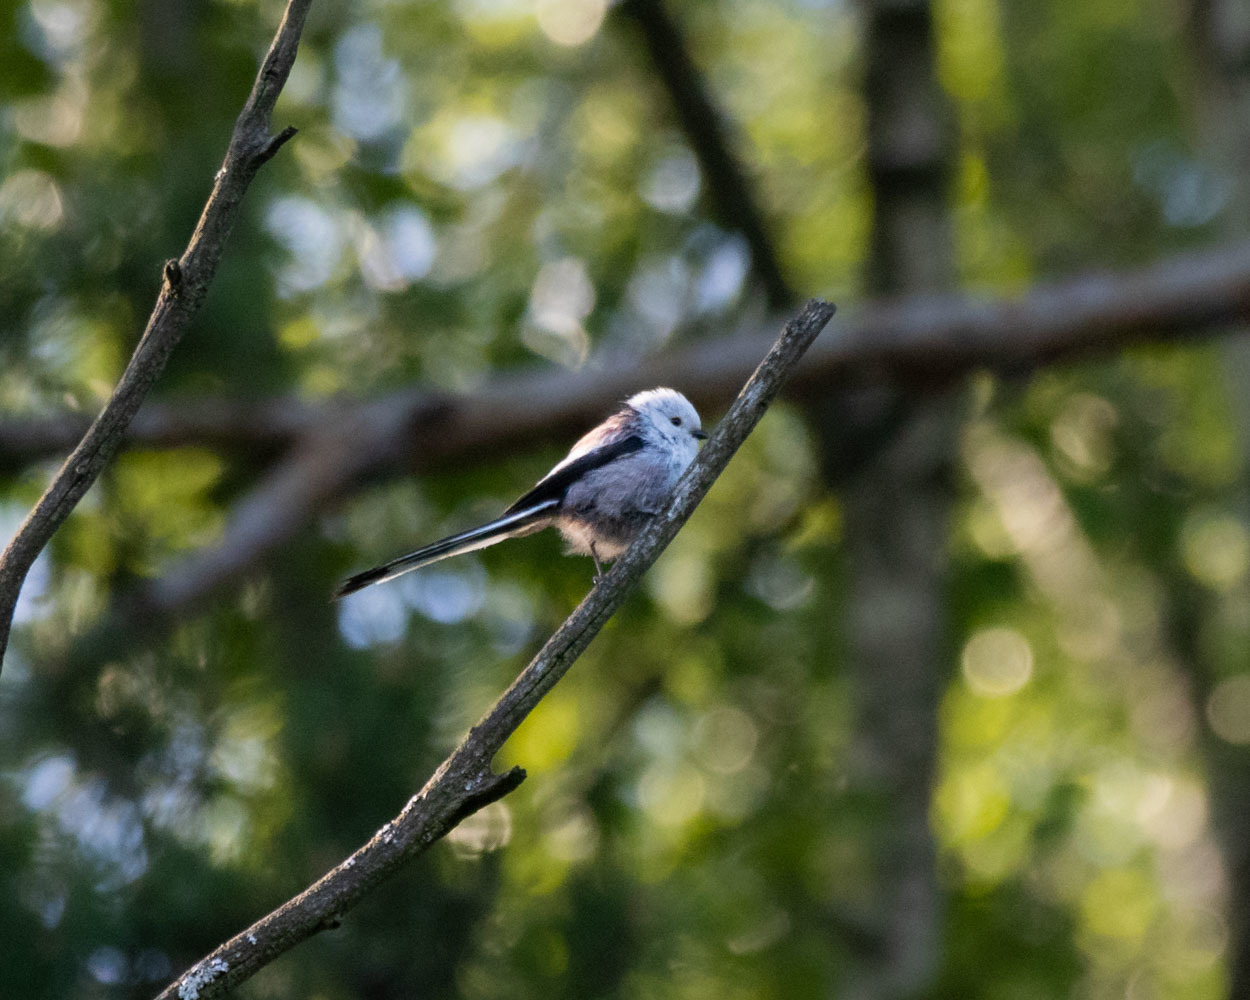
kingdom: Animalia
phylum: Chordata
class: Aves
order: Passeriformes
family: Aegithalidae
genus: Aegithalos
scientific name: Aegithalos caudatus
